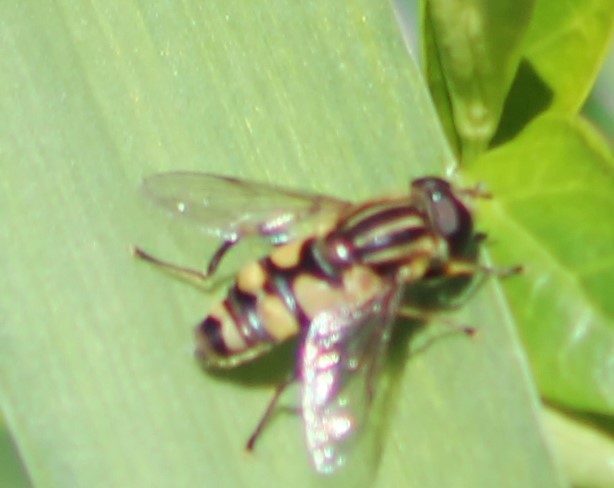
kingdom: Animalia
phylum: Arthropoda
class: Insecta
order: Diptera
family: Syrphidae
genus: Helophilus
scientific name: Helophilus fasciatus
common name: Narrow-headed marsh fly
